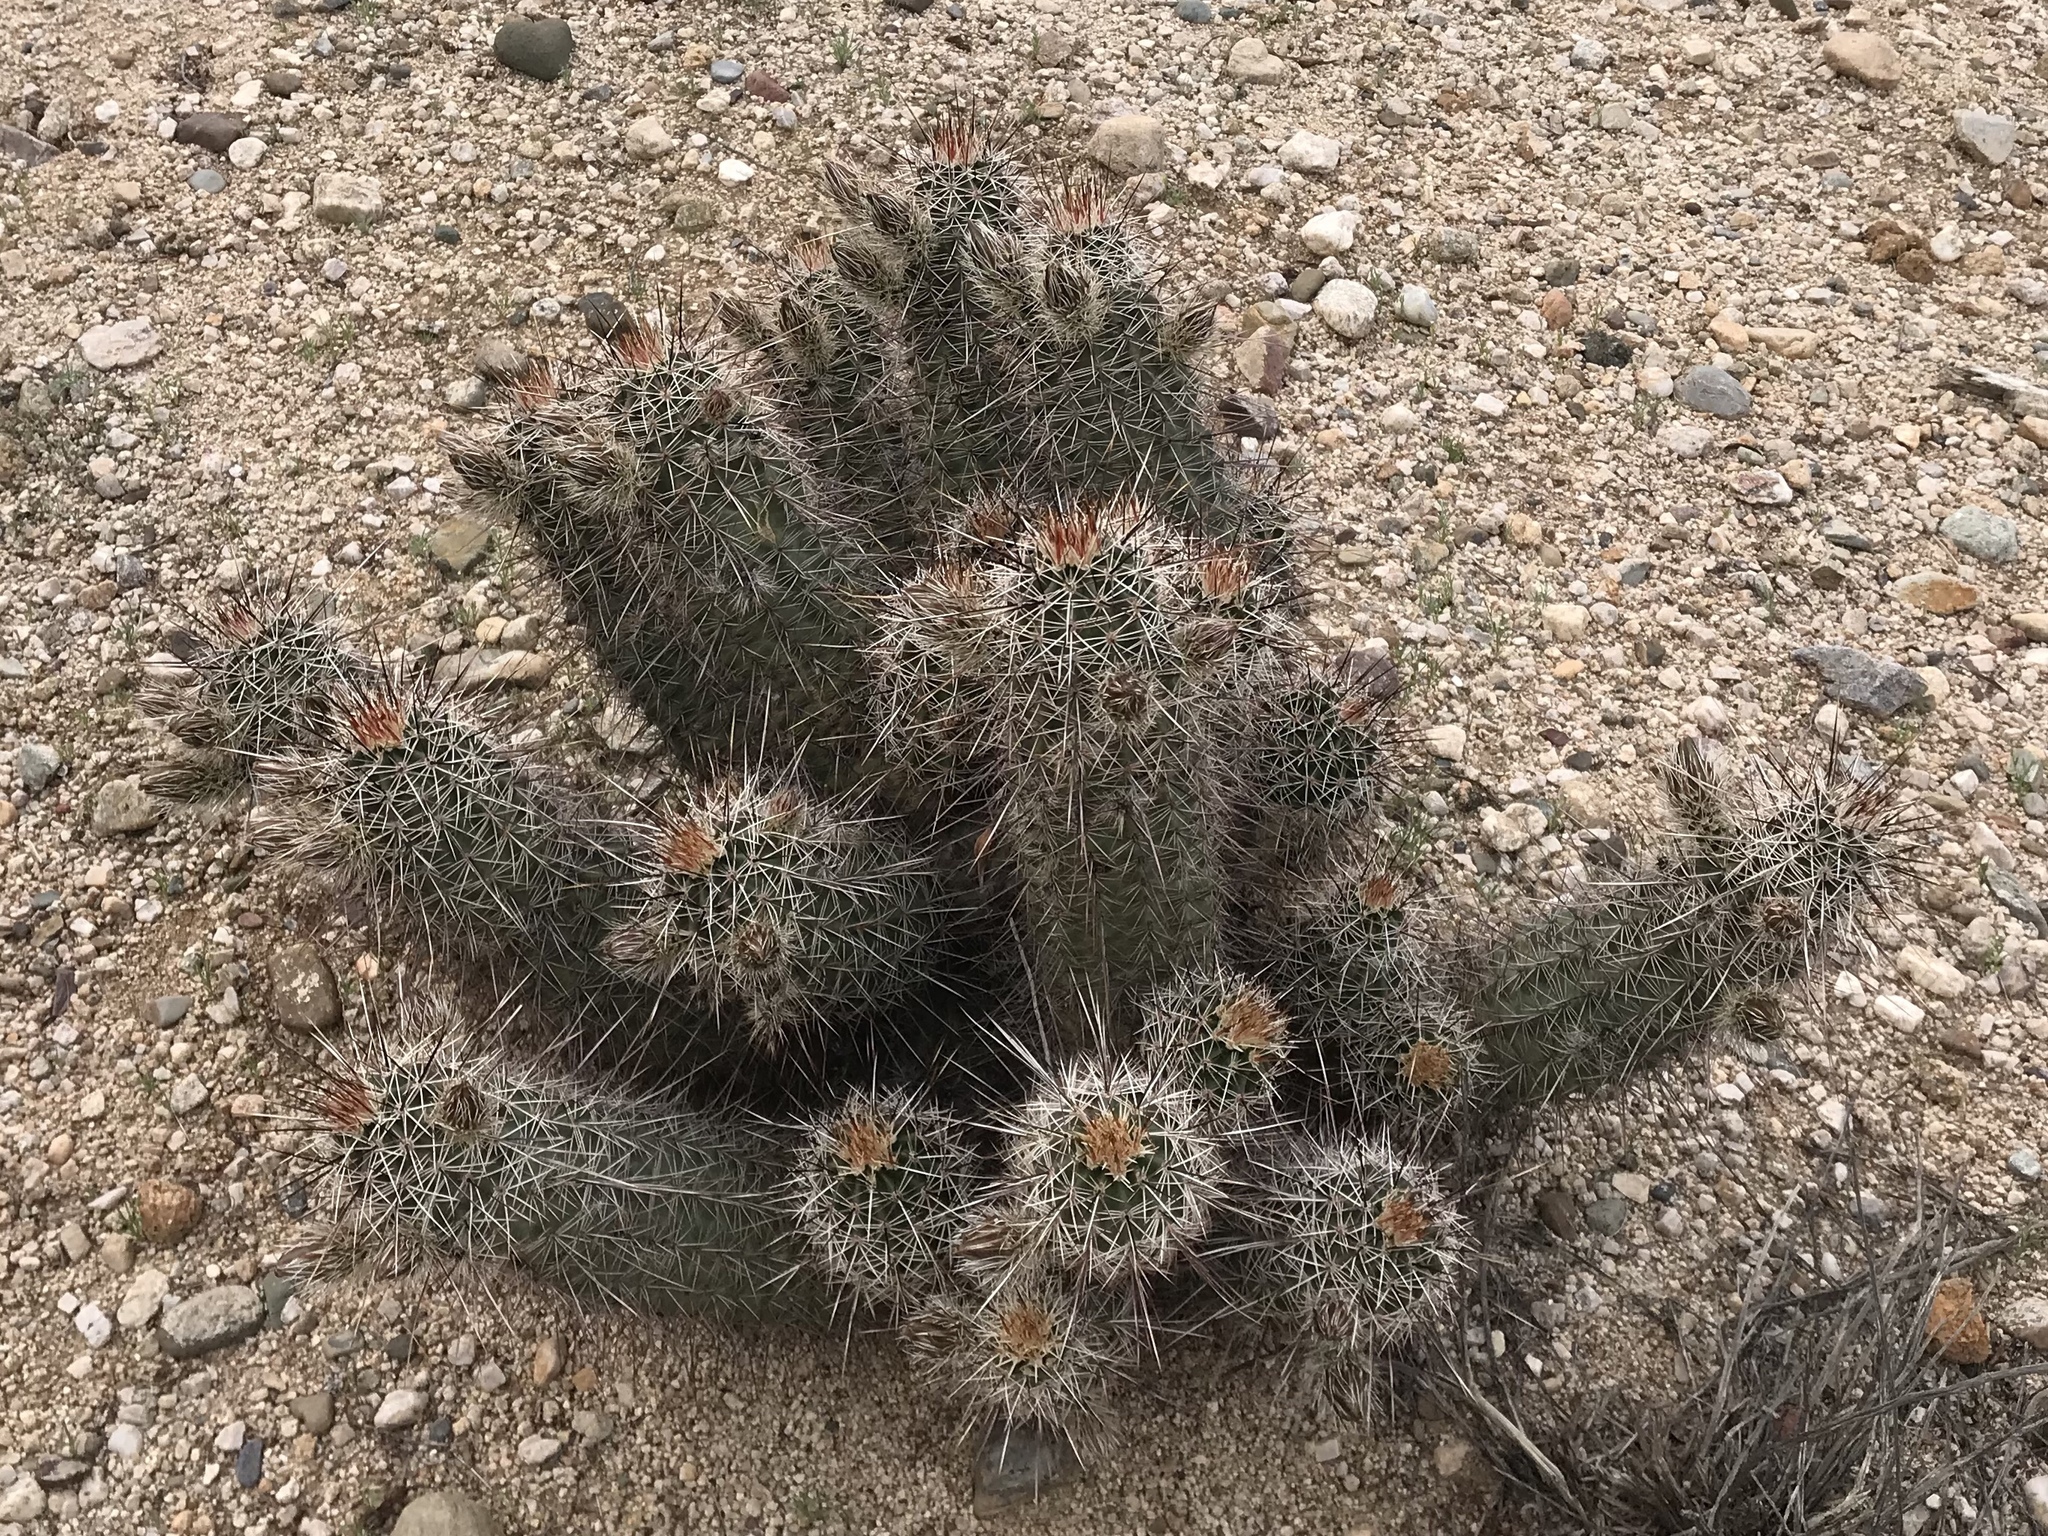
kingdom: Plantae
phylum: Tracheophyta
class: Magnoliopsida
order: Caryophyllales
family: Cactaceae
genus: Echinocereus
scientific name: Echinocereus fasciculatus
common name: Bundle hedgehog
